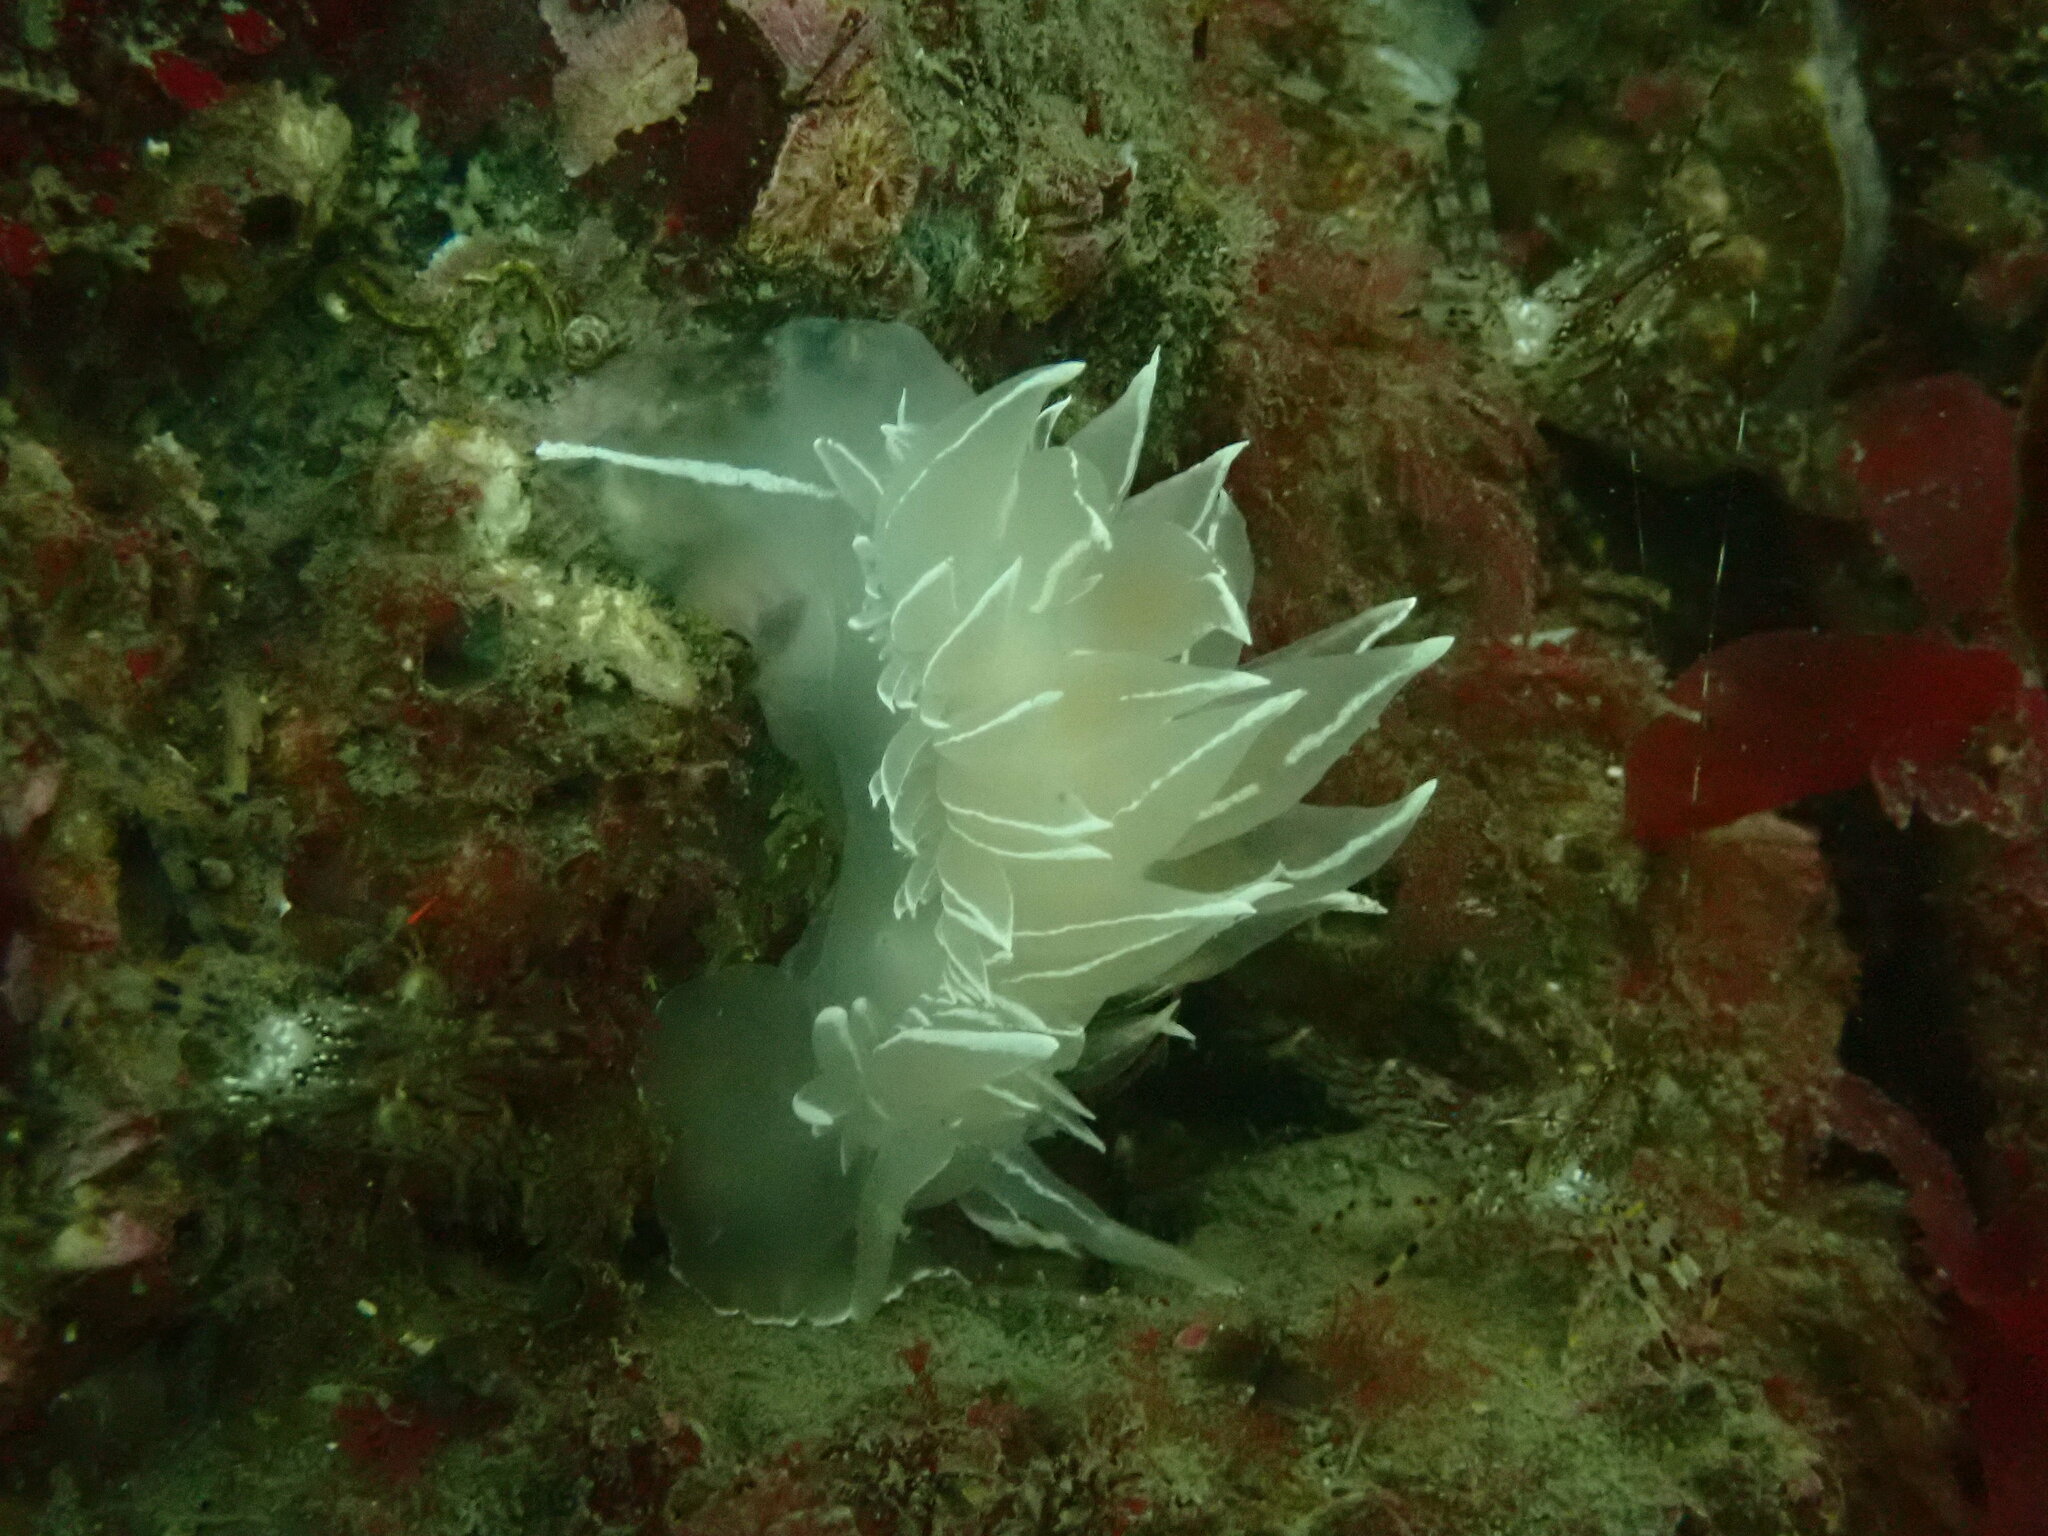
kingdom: Animalia
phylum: Mollusca
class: Gastropoda
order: Nudibranchia
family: Dironidae
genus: Dirona
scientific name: Dirona albolineata
